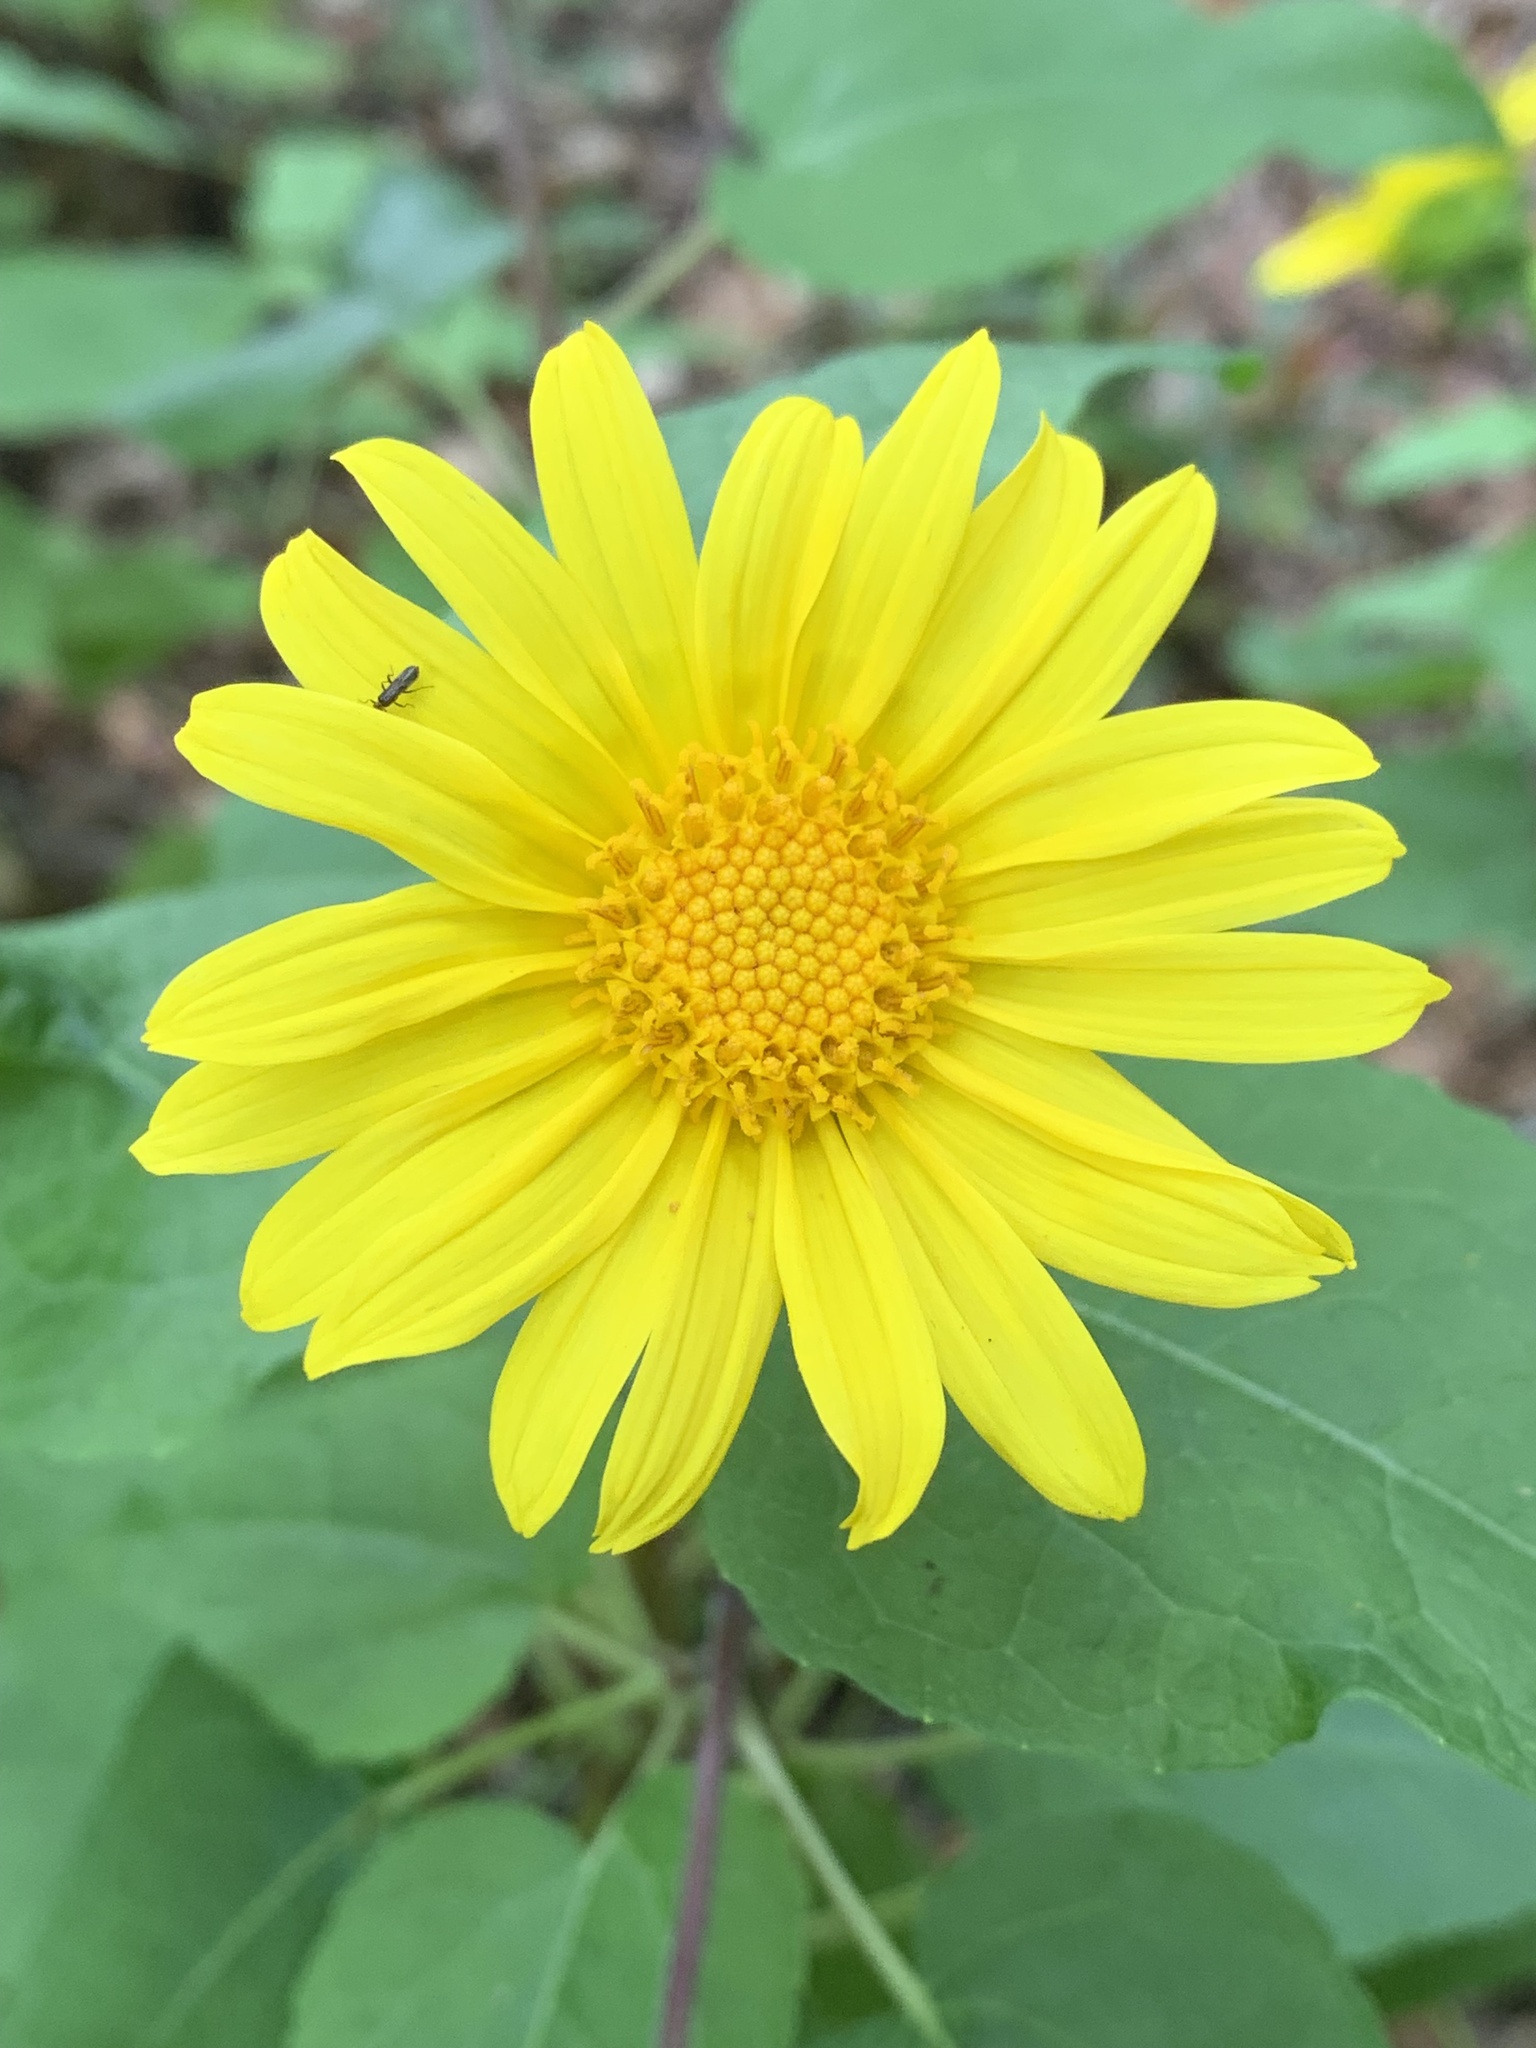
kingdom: Plantae
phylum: Tracheophyta
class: Magnoliopsida
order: Asterales
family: Asteraceae
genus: Venegasia
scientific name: Venegasia carpesioides
